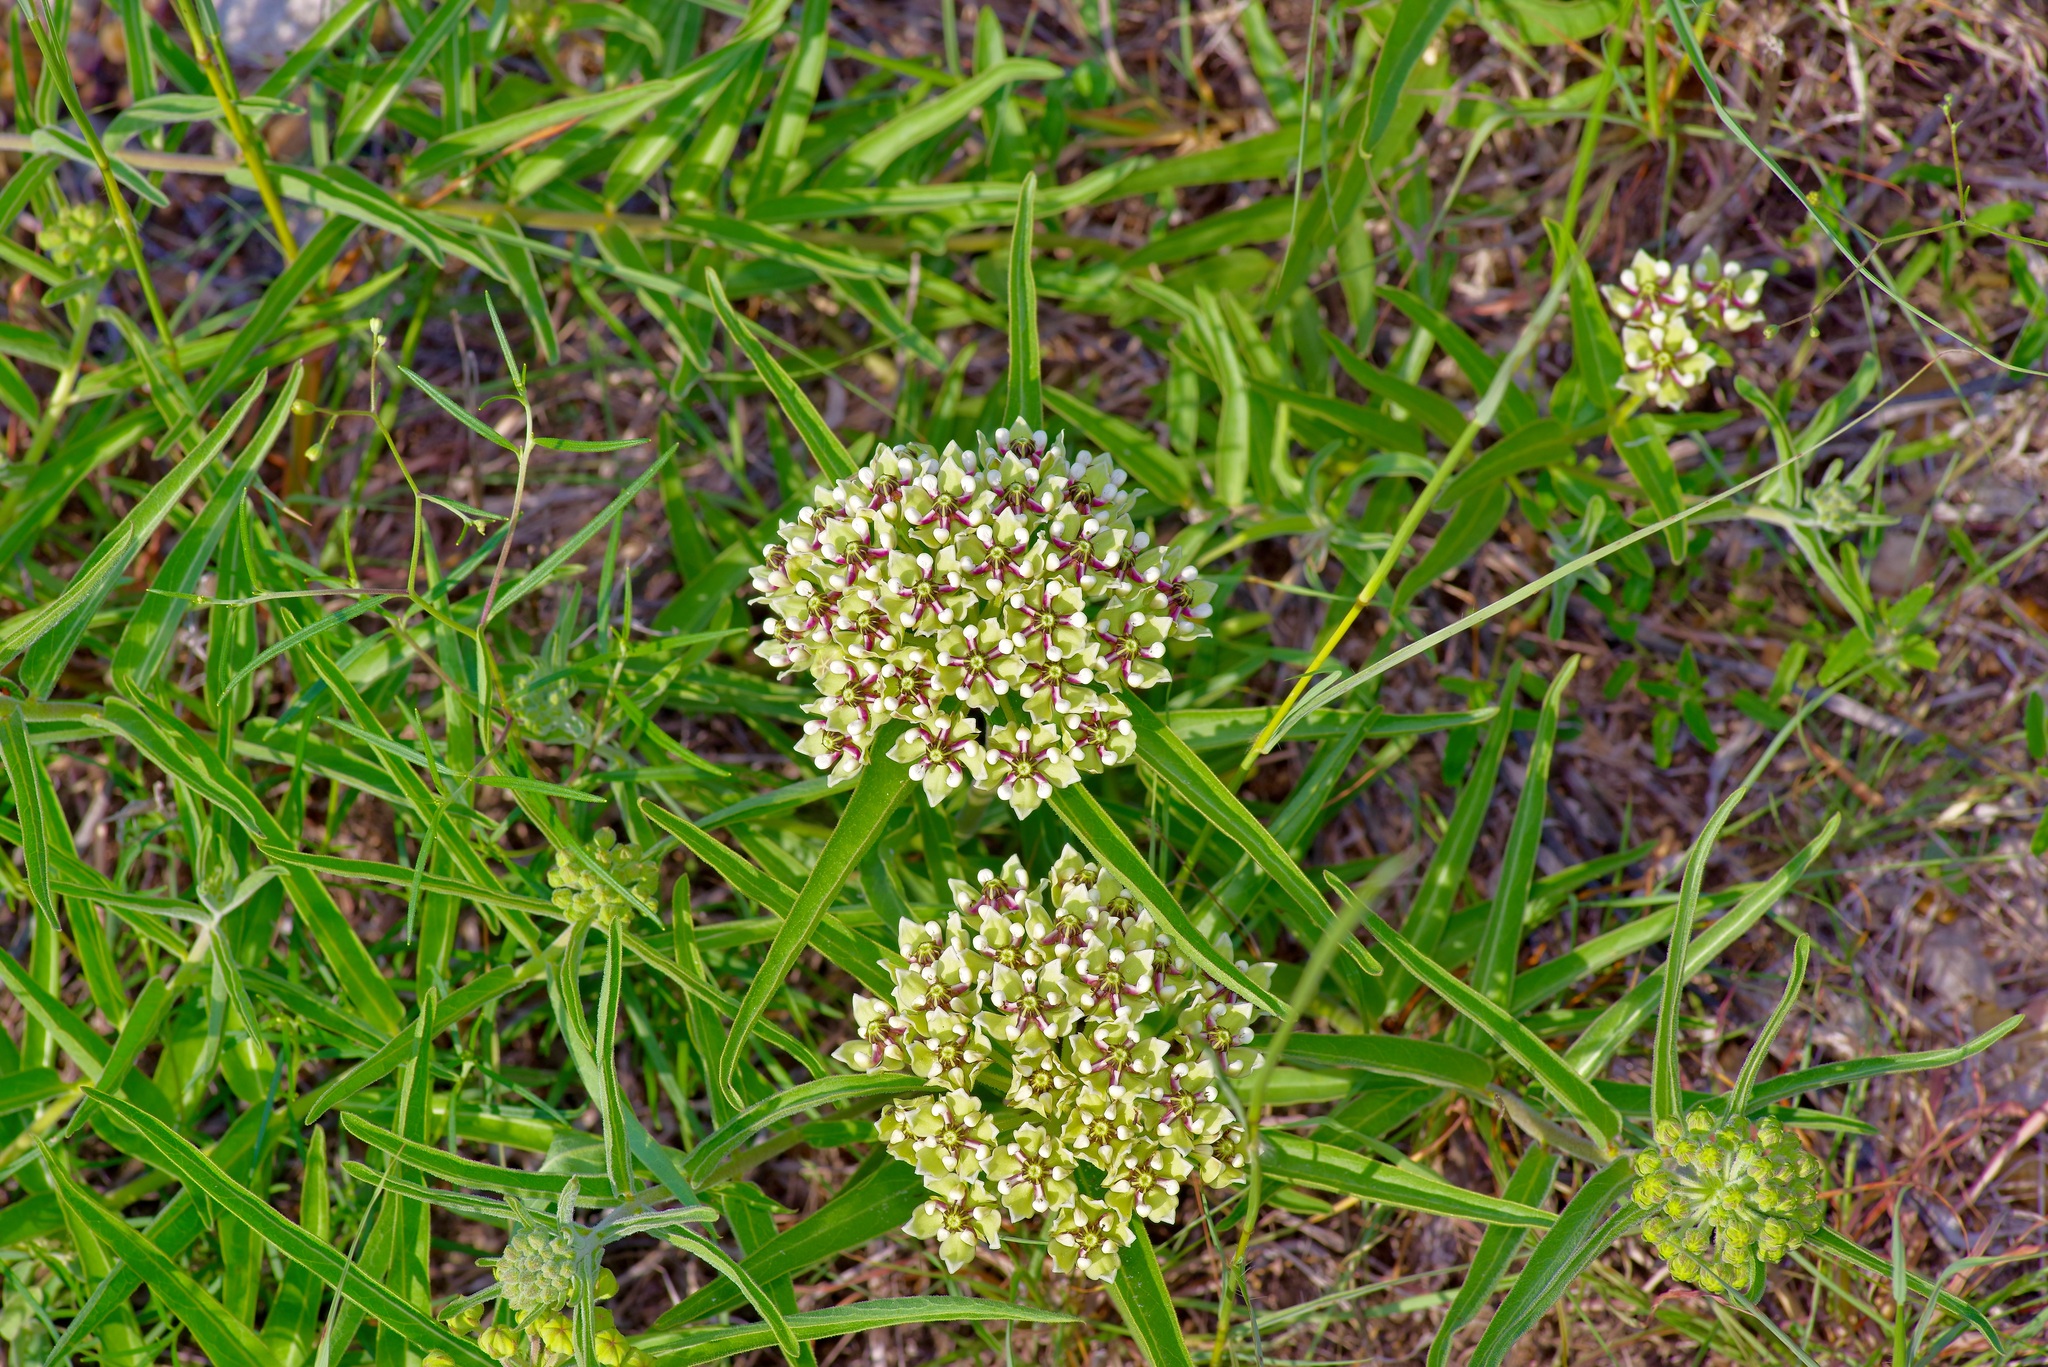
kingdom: Plantae
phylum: Tracheophyta
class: Magnoliopsida
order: Gentianales
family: Apocynaceae
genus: Asclepias
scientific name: Asclepias asperula
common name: Antelope horns
